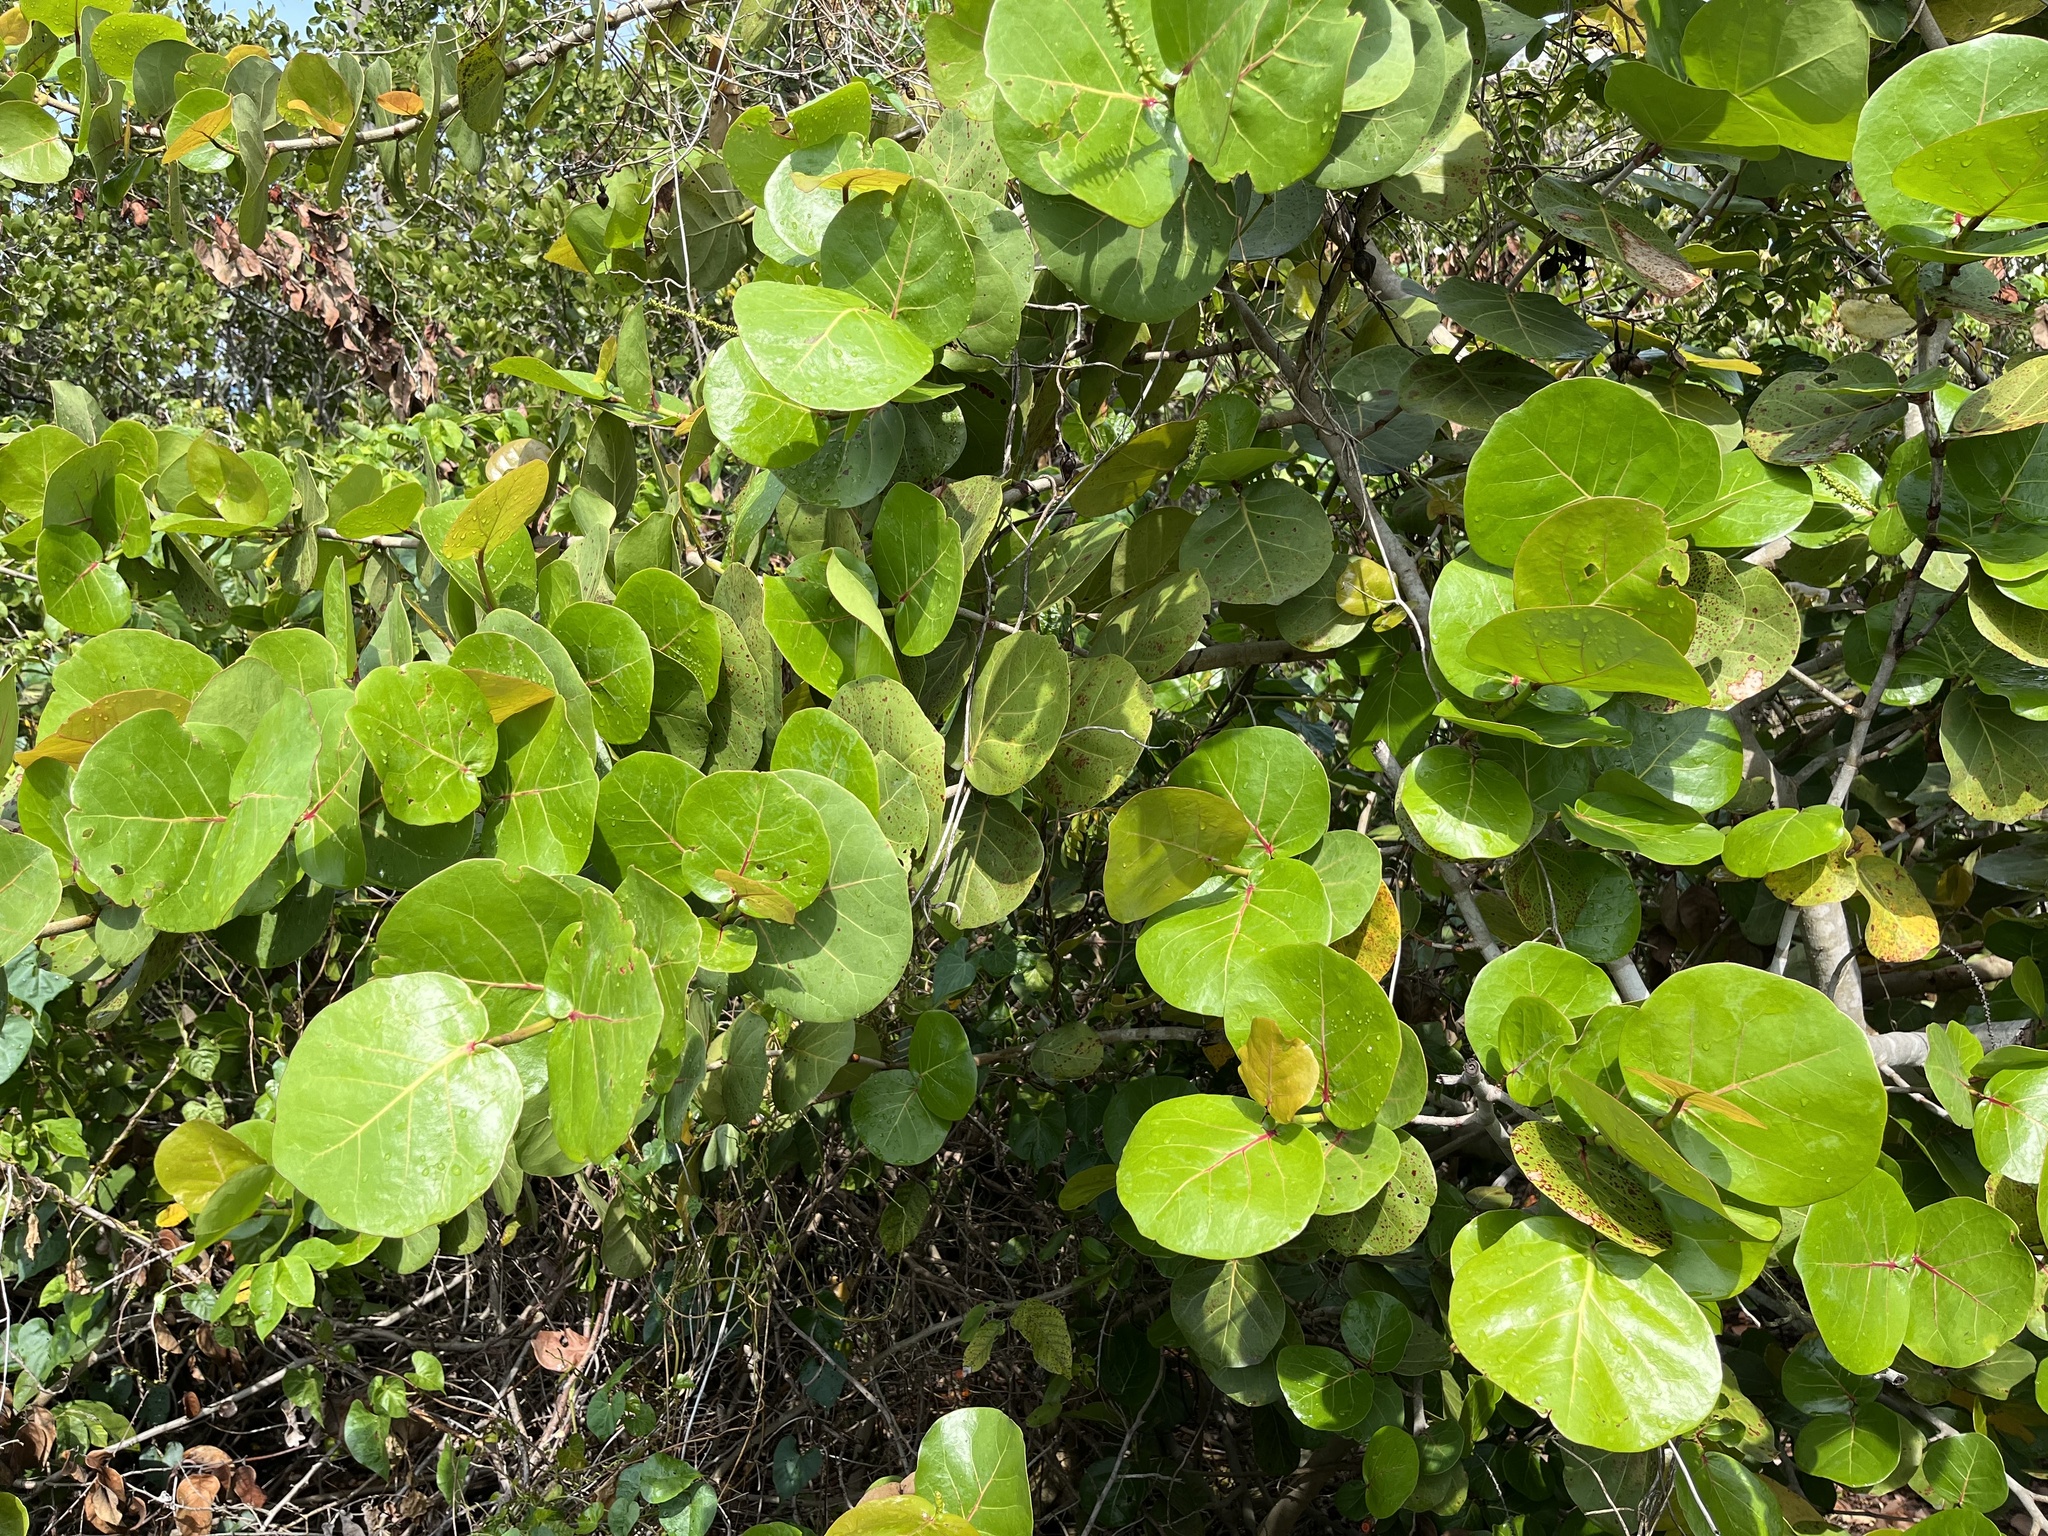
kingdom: Plantae
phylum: Tracheophyta
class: Magnoliopsida
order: Caryophyllales
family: Polygonaceae
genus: Coccoloba
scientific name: Coccoloba uvifera
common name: Seagrape
